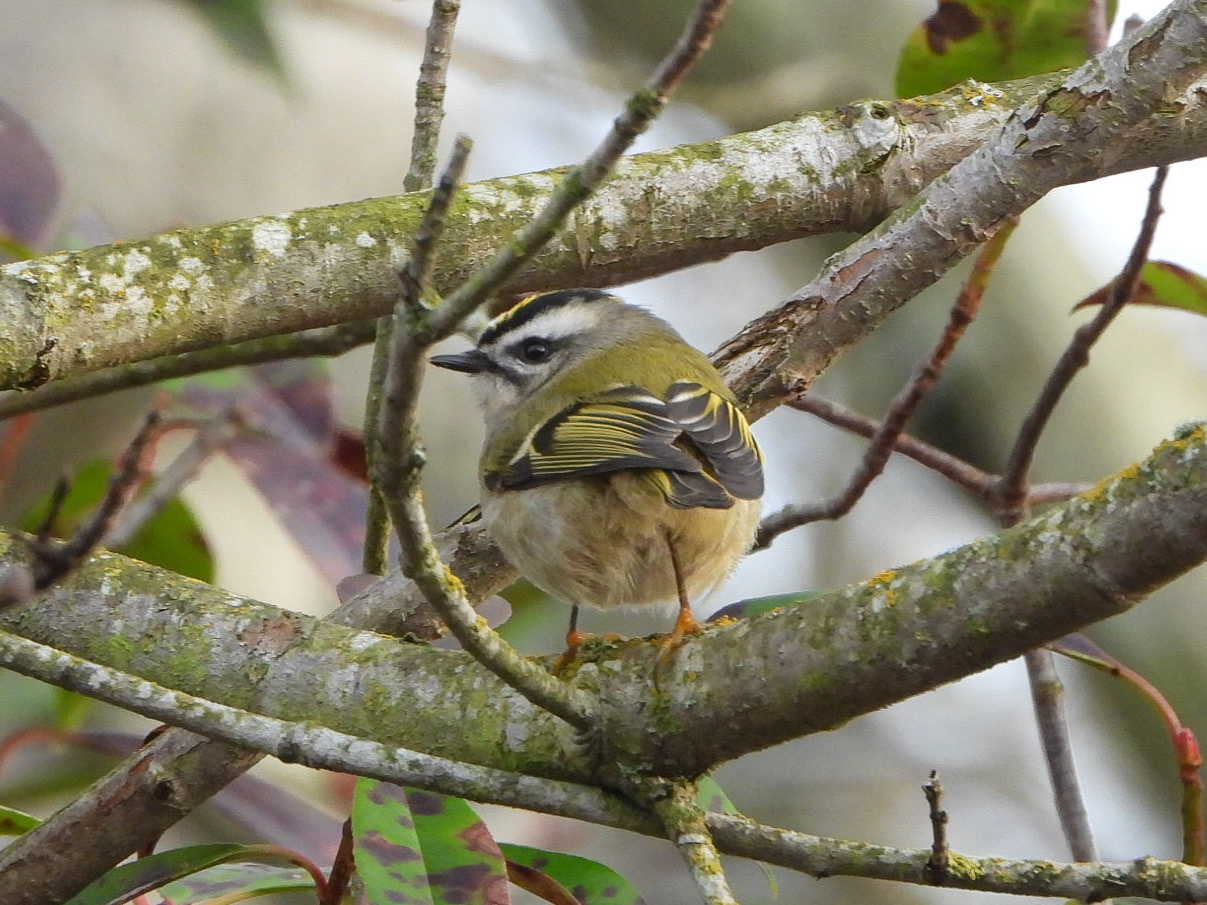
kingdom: Animalia
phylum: Chordata
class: Aves
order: Passeriformes
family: Regulidae
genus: Regulus
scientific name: Regulus satrapa
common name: Golden-crowned kinglet
